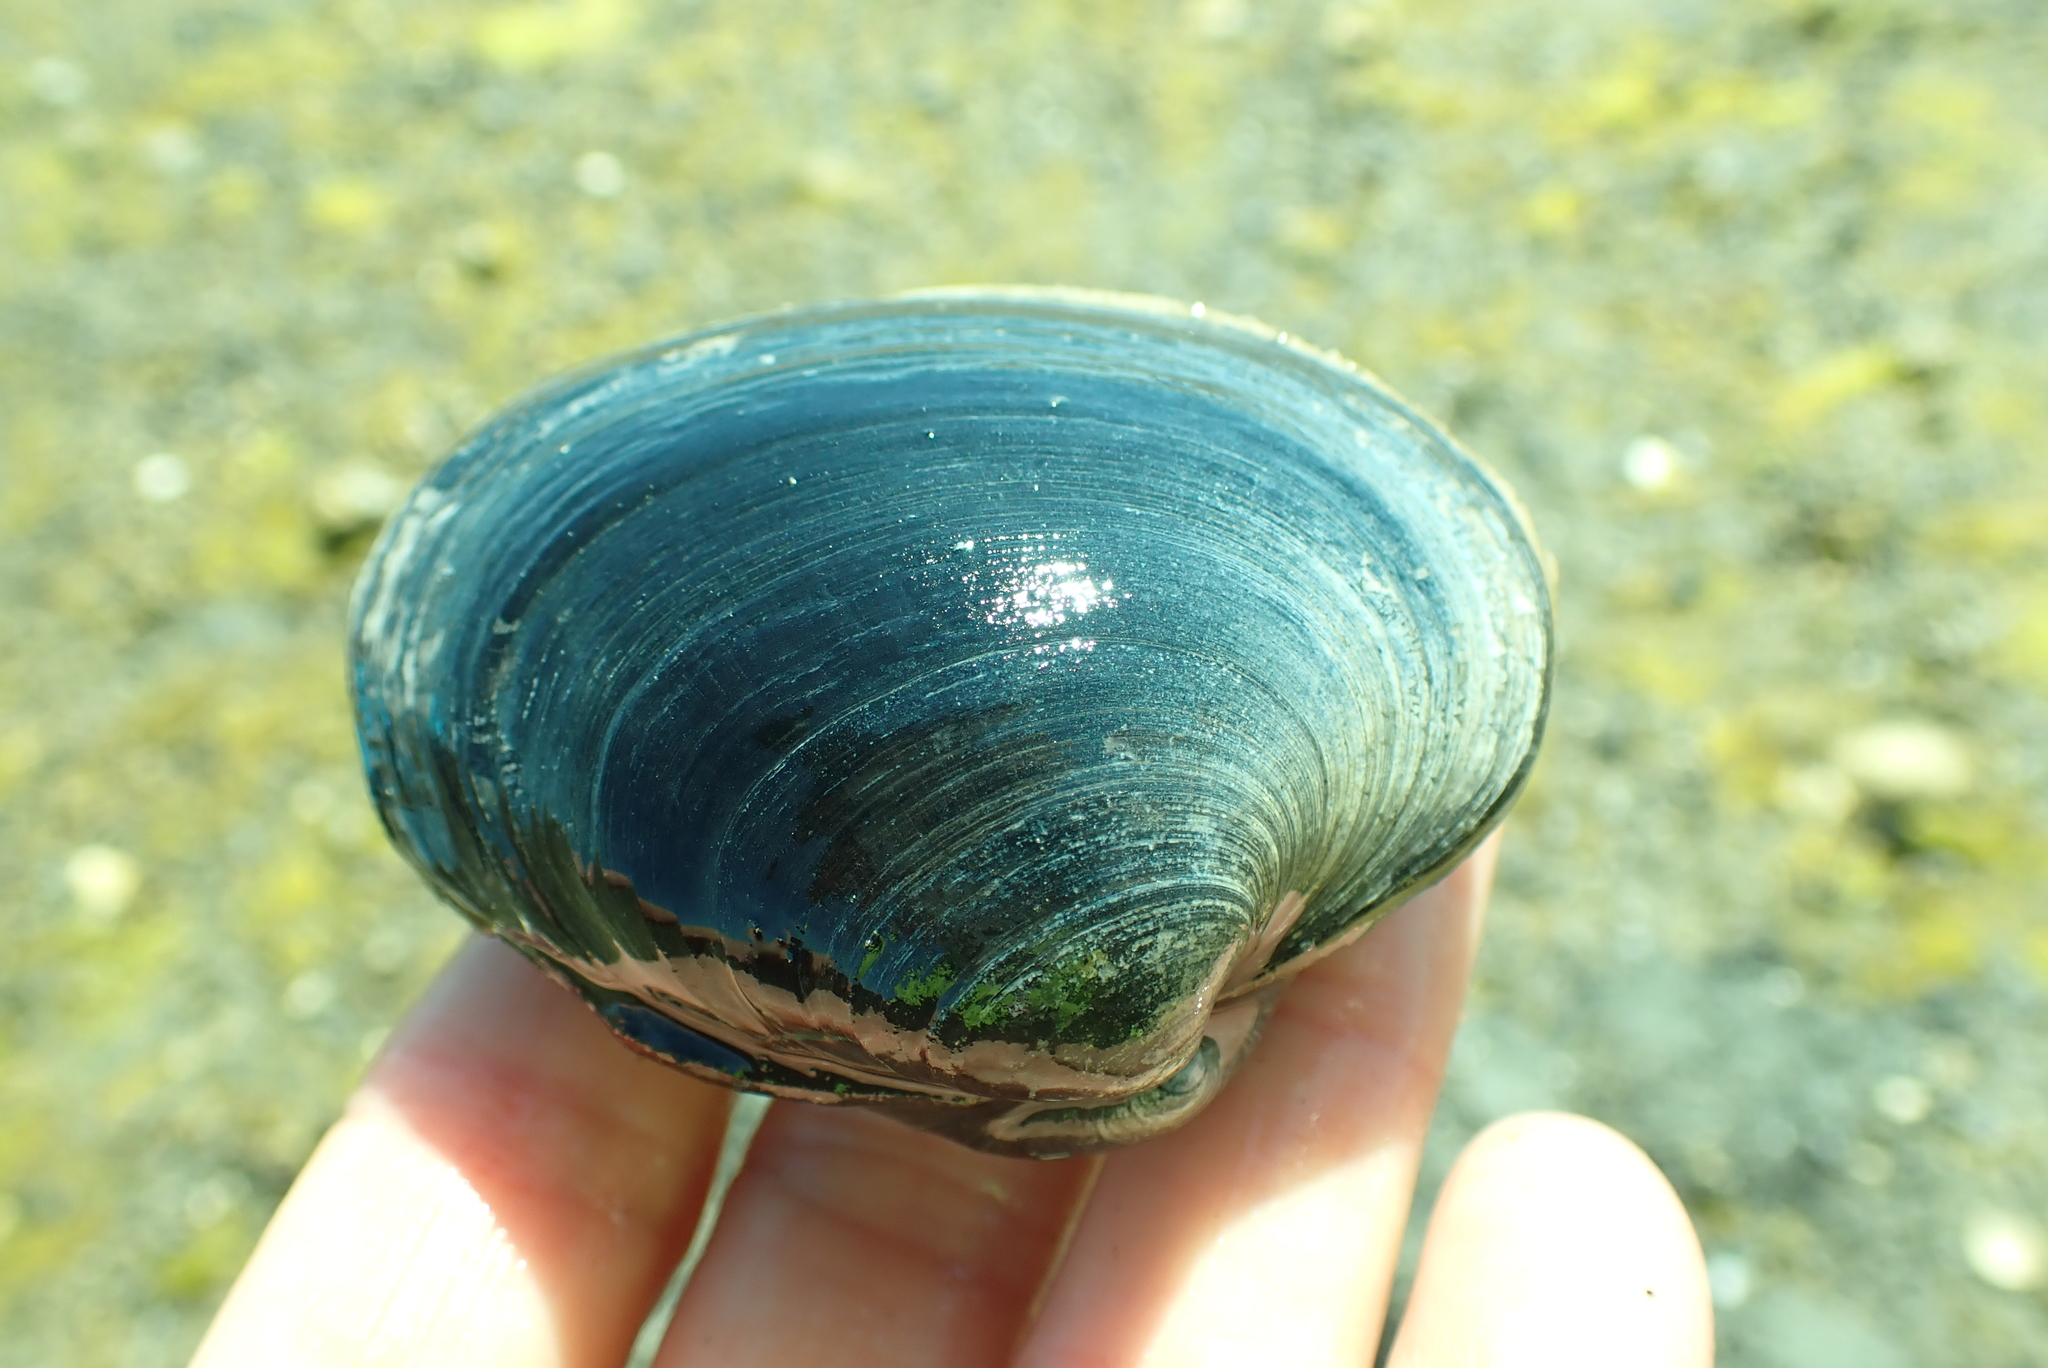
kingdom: Animalia
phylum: Mollusca
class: Bivalvia
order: Venerida
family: Veneridae
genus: Saxidomus
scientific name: Saxidomus gigantea
